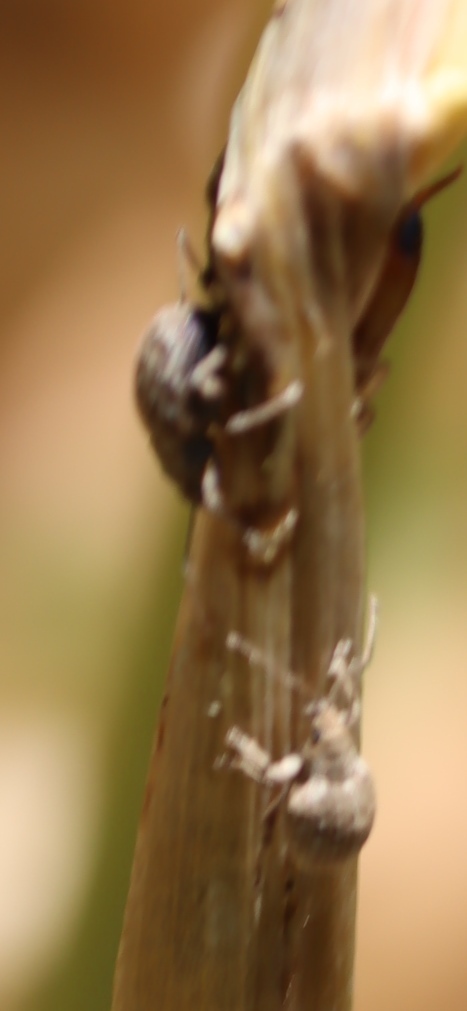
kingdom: Animalia
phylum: Arthropoda
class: Insecta
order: Coleoptera
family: Curculionidae
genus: Ellimenistes
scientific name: Ellimenistes laesicollis
